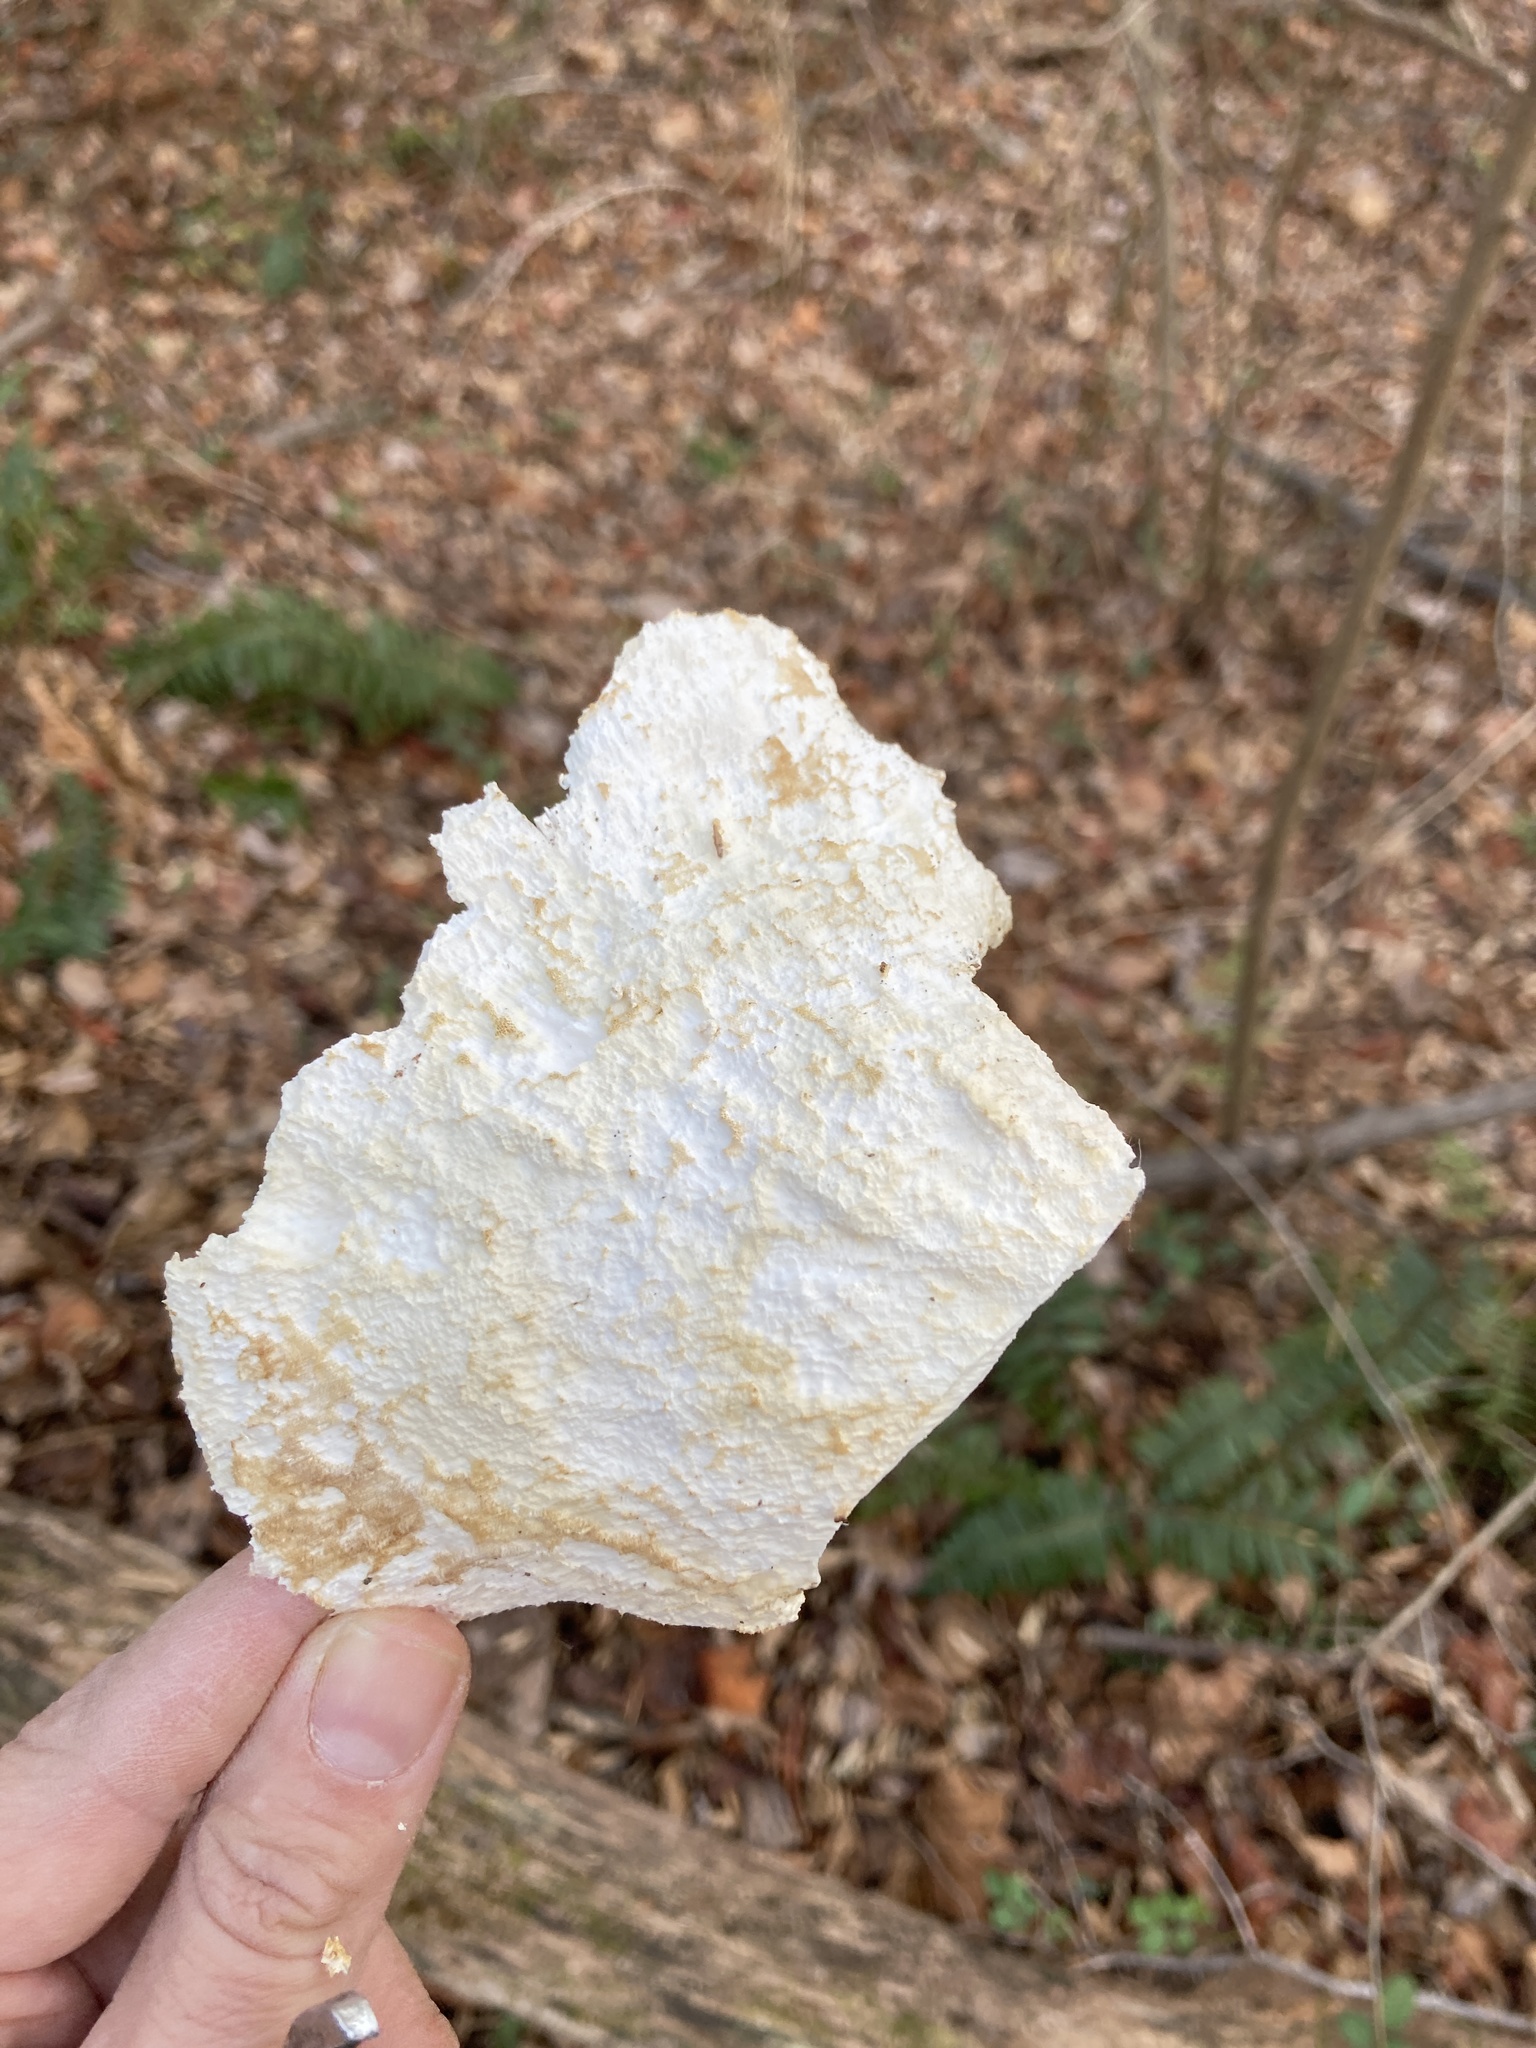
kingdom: Fungi
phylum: Basidiomycota
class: Agaricomycetes
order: Polyporales
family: Laetiporaceae
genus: Laetiporus
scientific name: Laetiporus sulphureus
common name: Chicken of the woods
